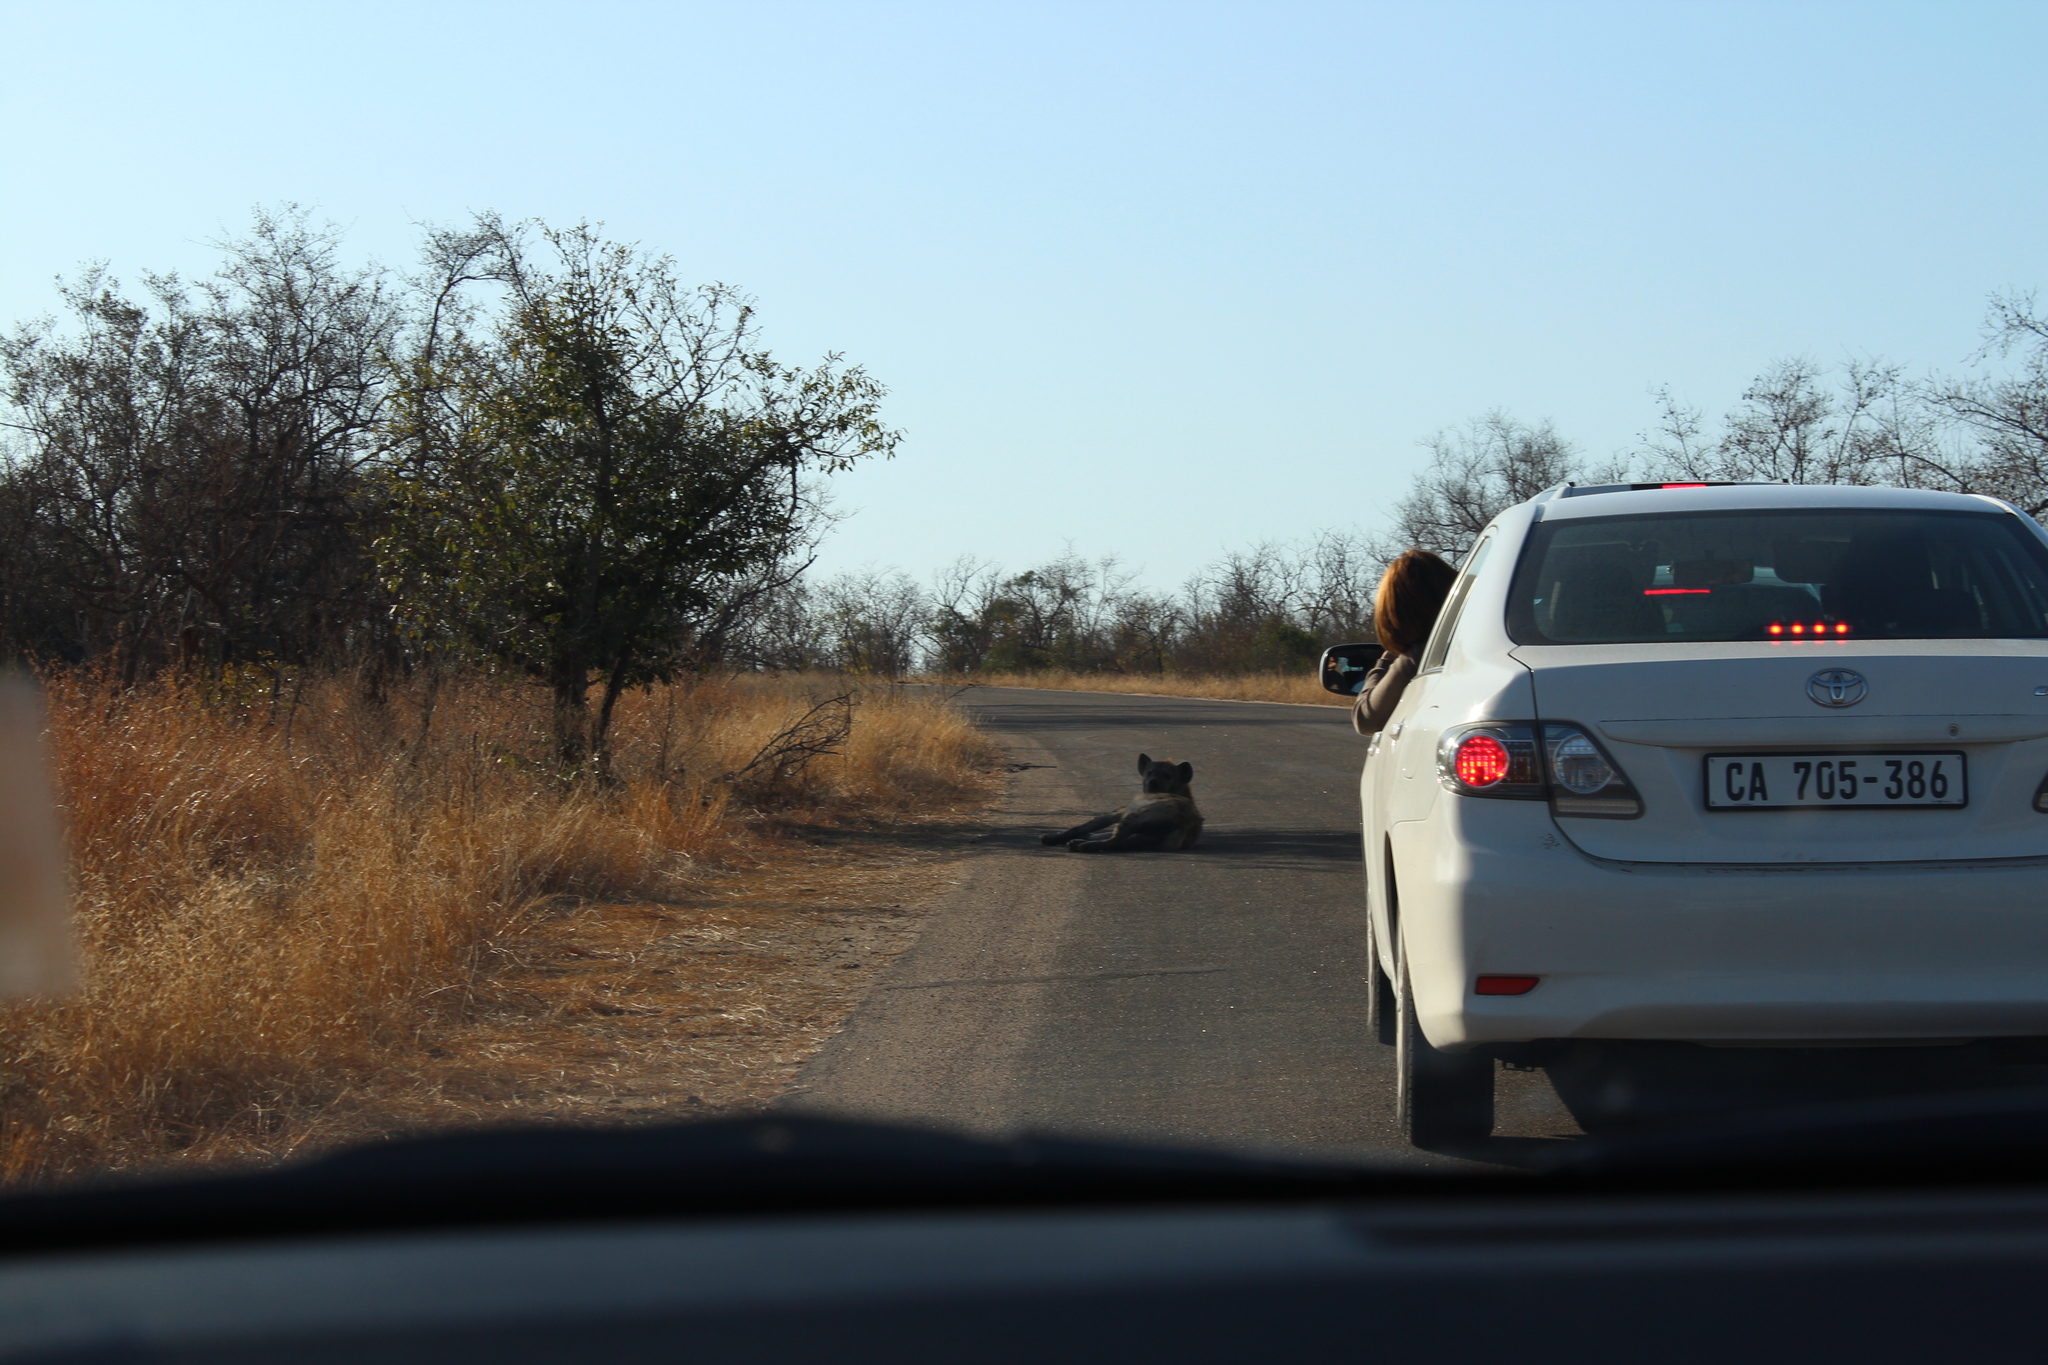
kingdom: Animalia
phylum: Chordata
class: Mammalia
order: Carnivora
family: Hyaenidae
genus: Crocuta
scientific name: Crocuta crocuta
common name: Spotted hyaena
